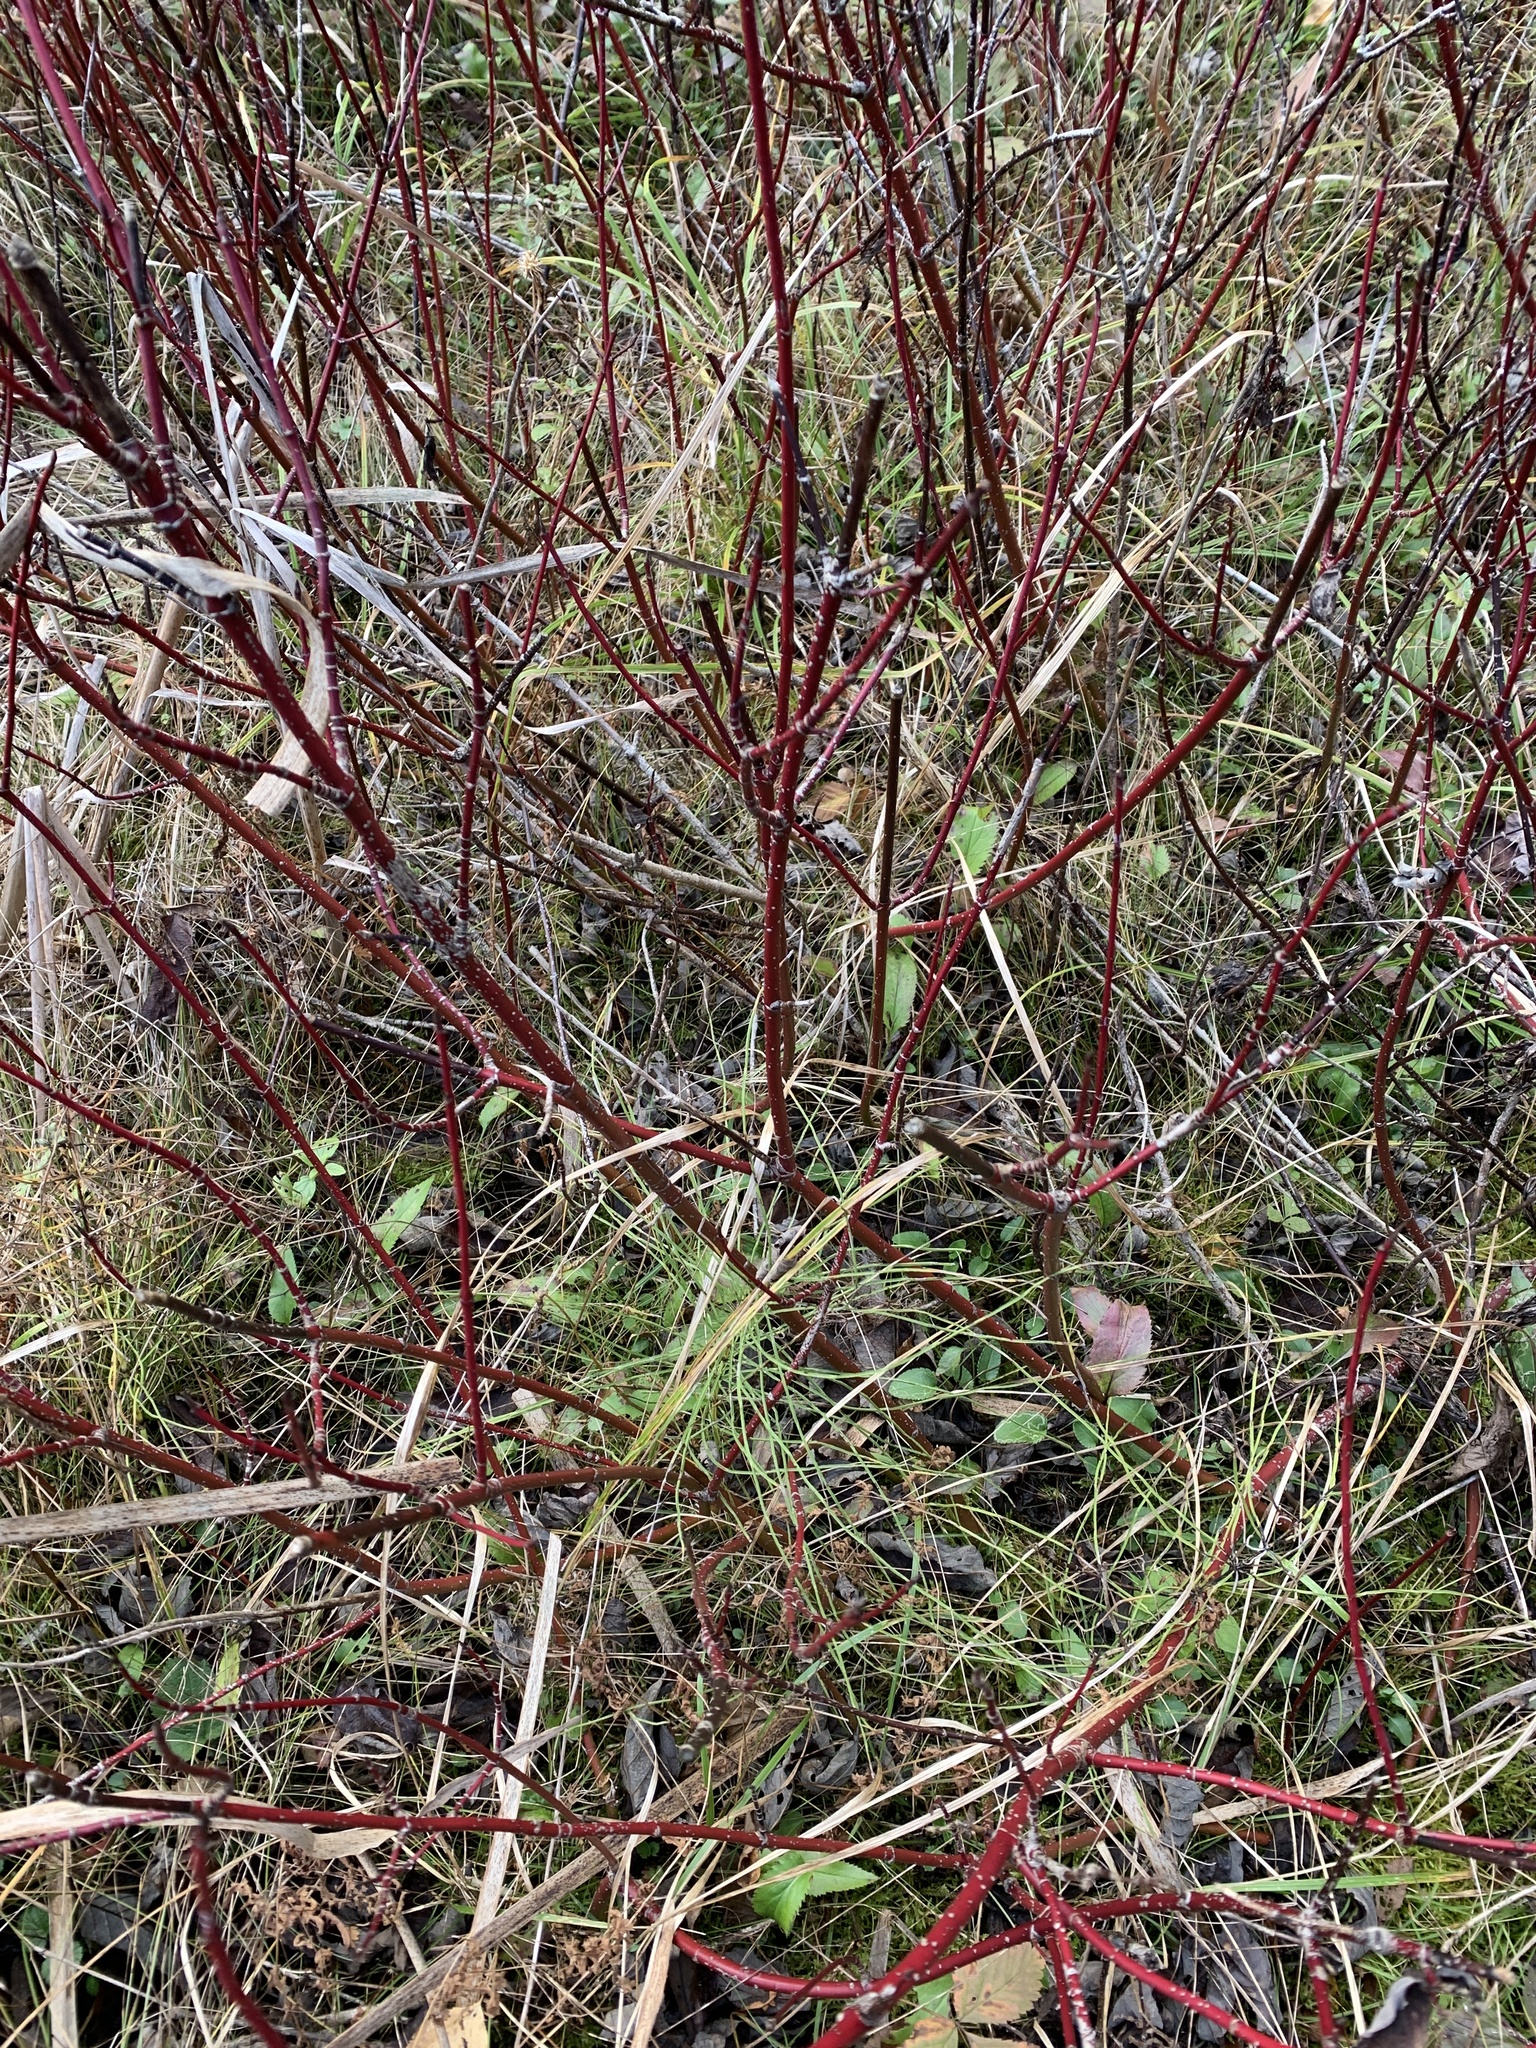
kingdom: Plantae
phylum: Tracheophyta
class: Magnoliopsida
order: Cornales
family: Cornaceae
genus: Cornus
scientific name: Cornus sericea
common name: Red-osier dogwood
